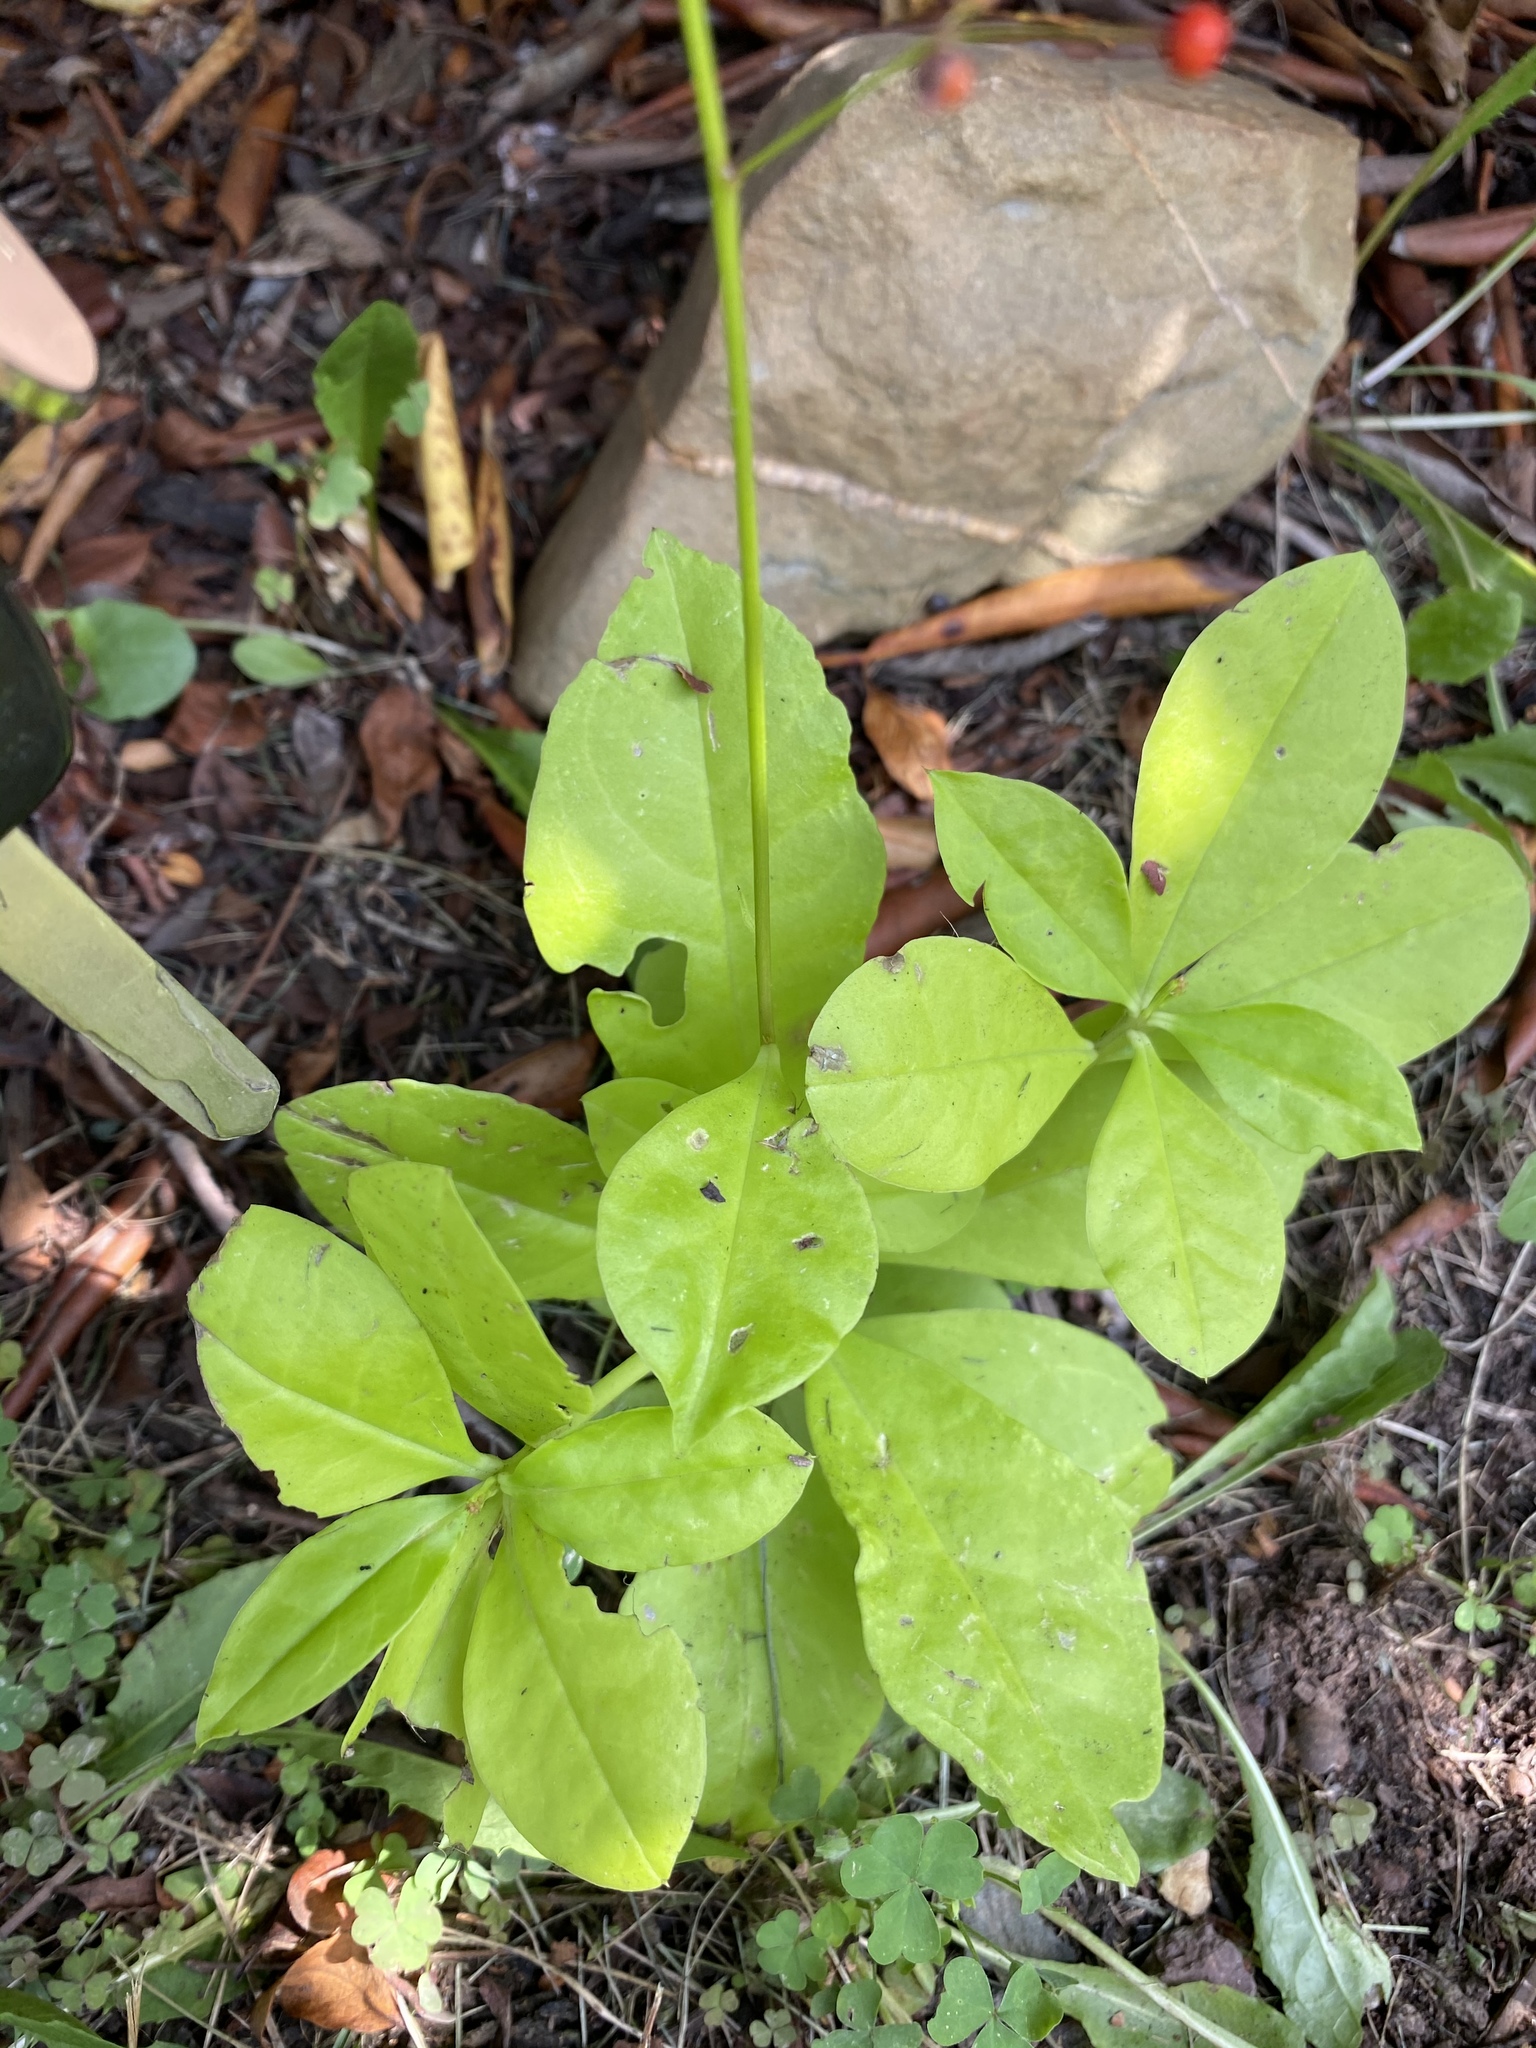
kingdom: Plantae
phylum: Tracheophyta
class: Magnoliopsida
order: Caryophyllales
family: Talinaceae
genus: Talinum
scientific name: Talinum paniculatum
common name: Jewels of opar
